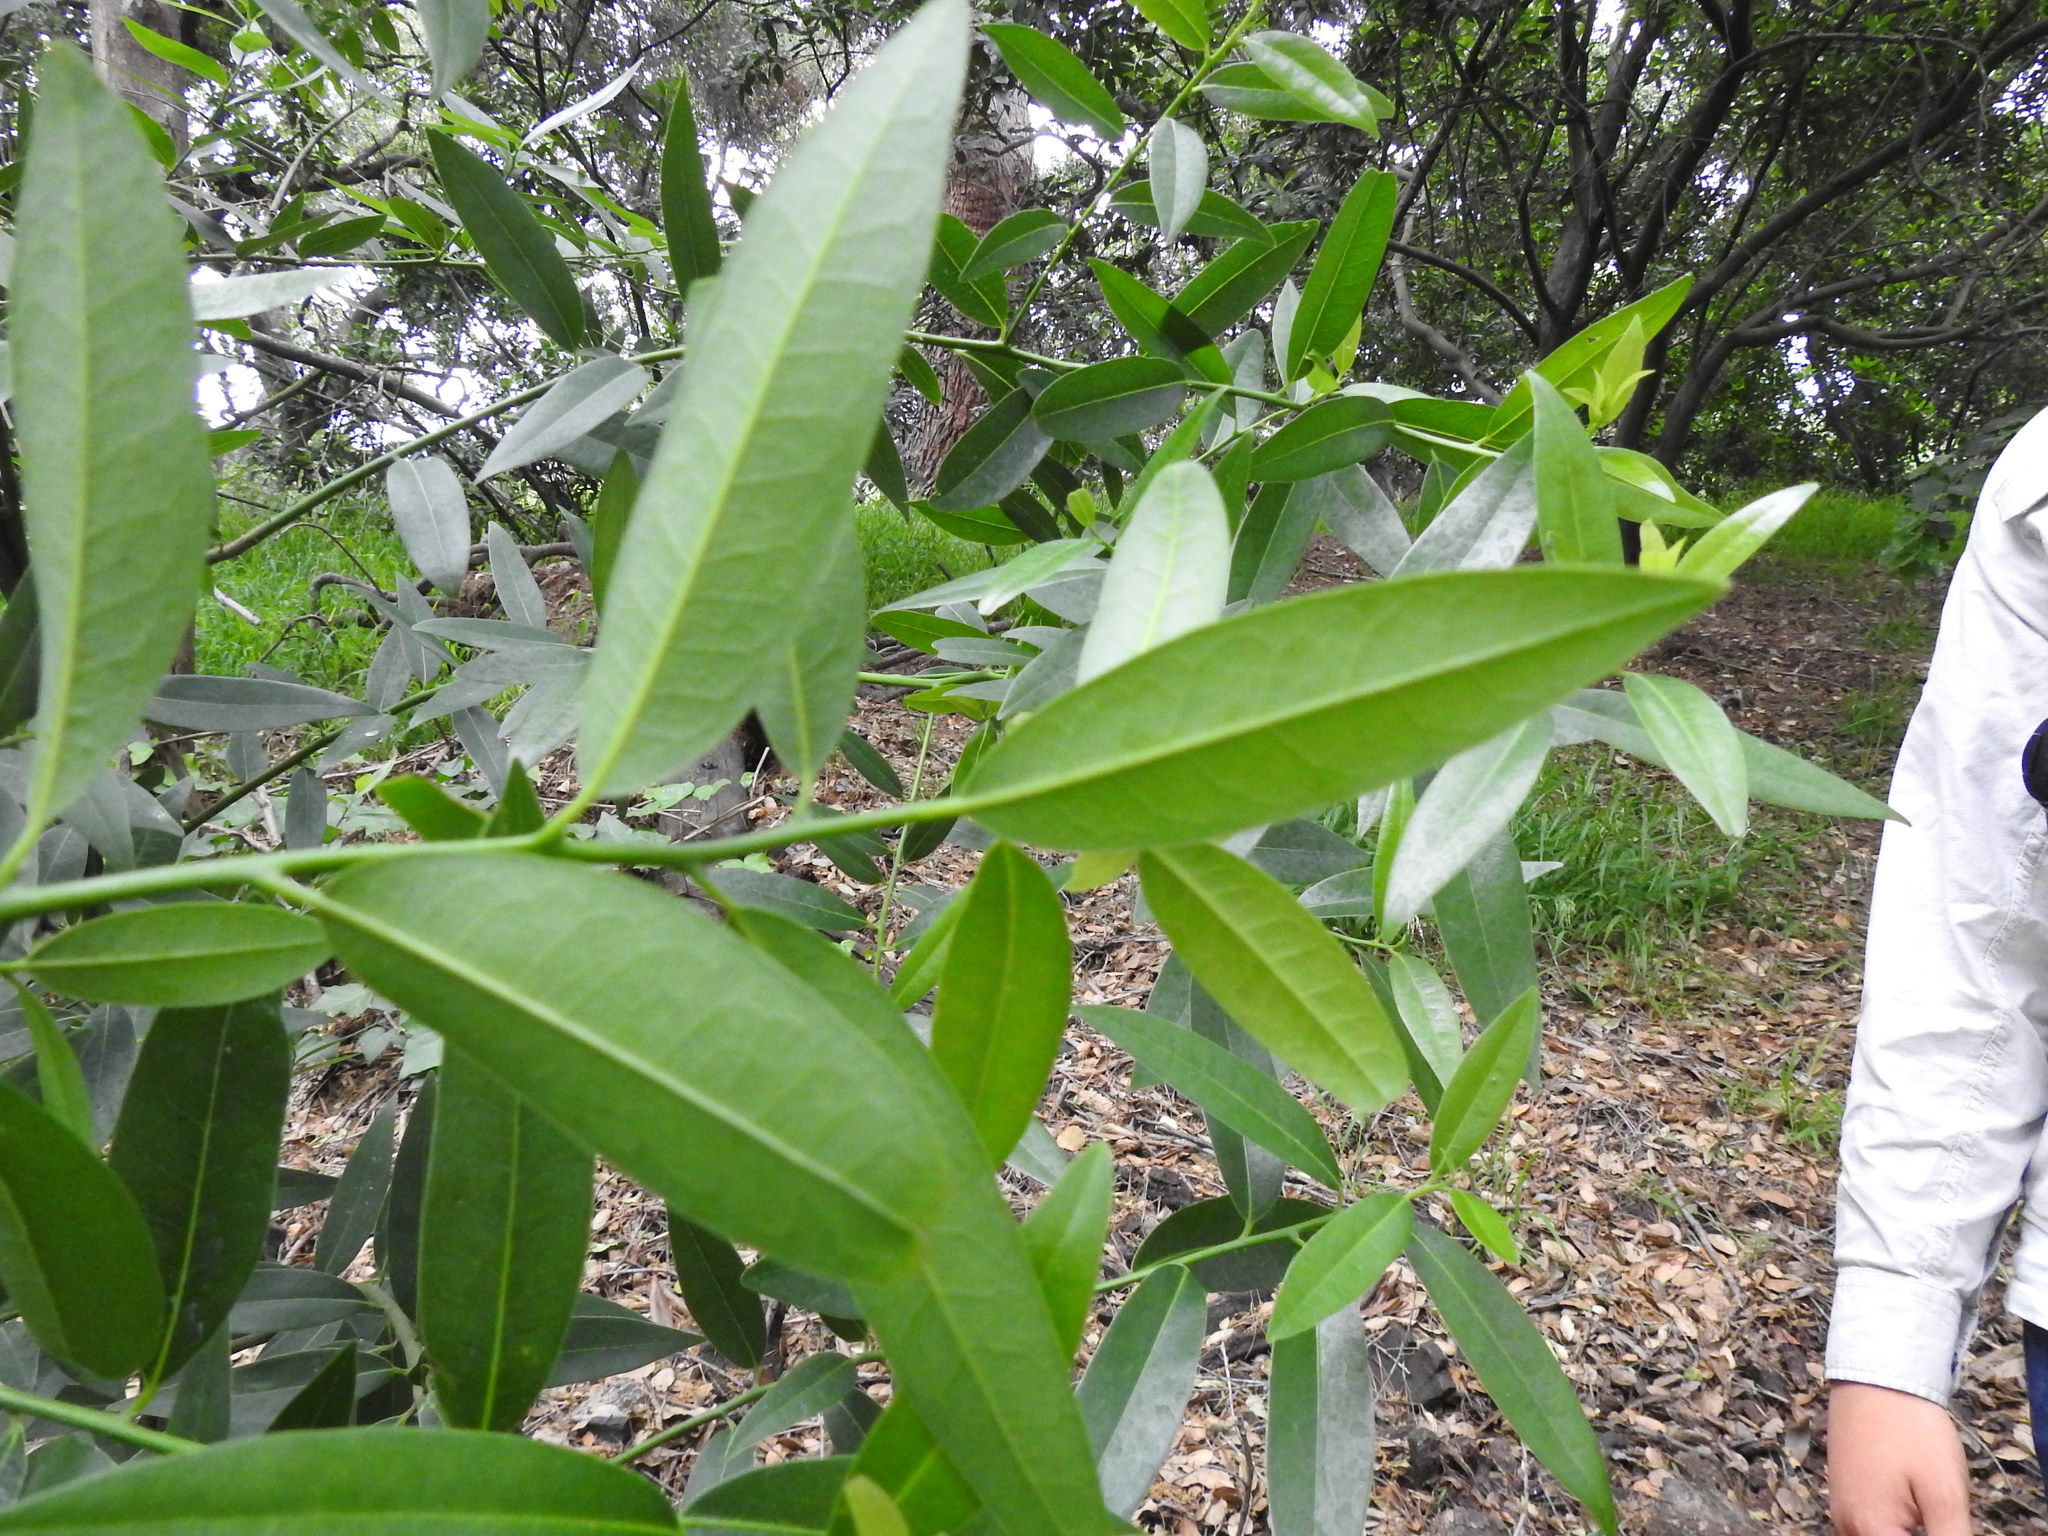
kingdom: Plantae
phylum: Tracheophyta
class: Magnoliopsida
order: Laurales
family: Lauraceae
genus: Umbellularia
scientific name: Umbellularia californica
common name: California bay
